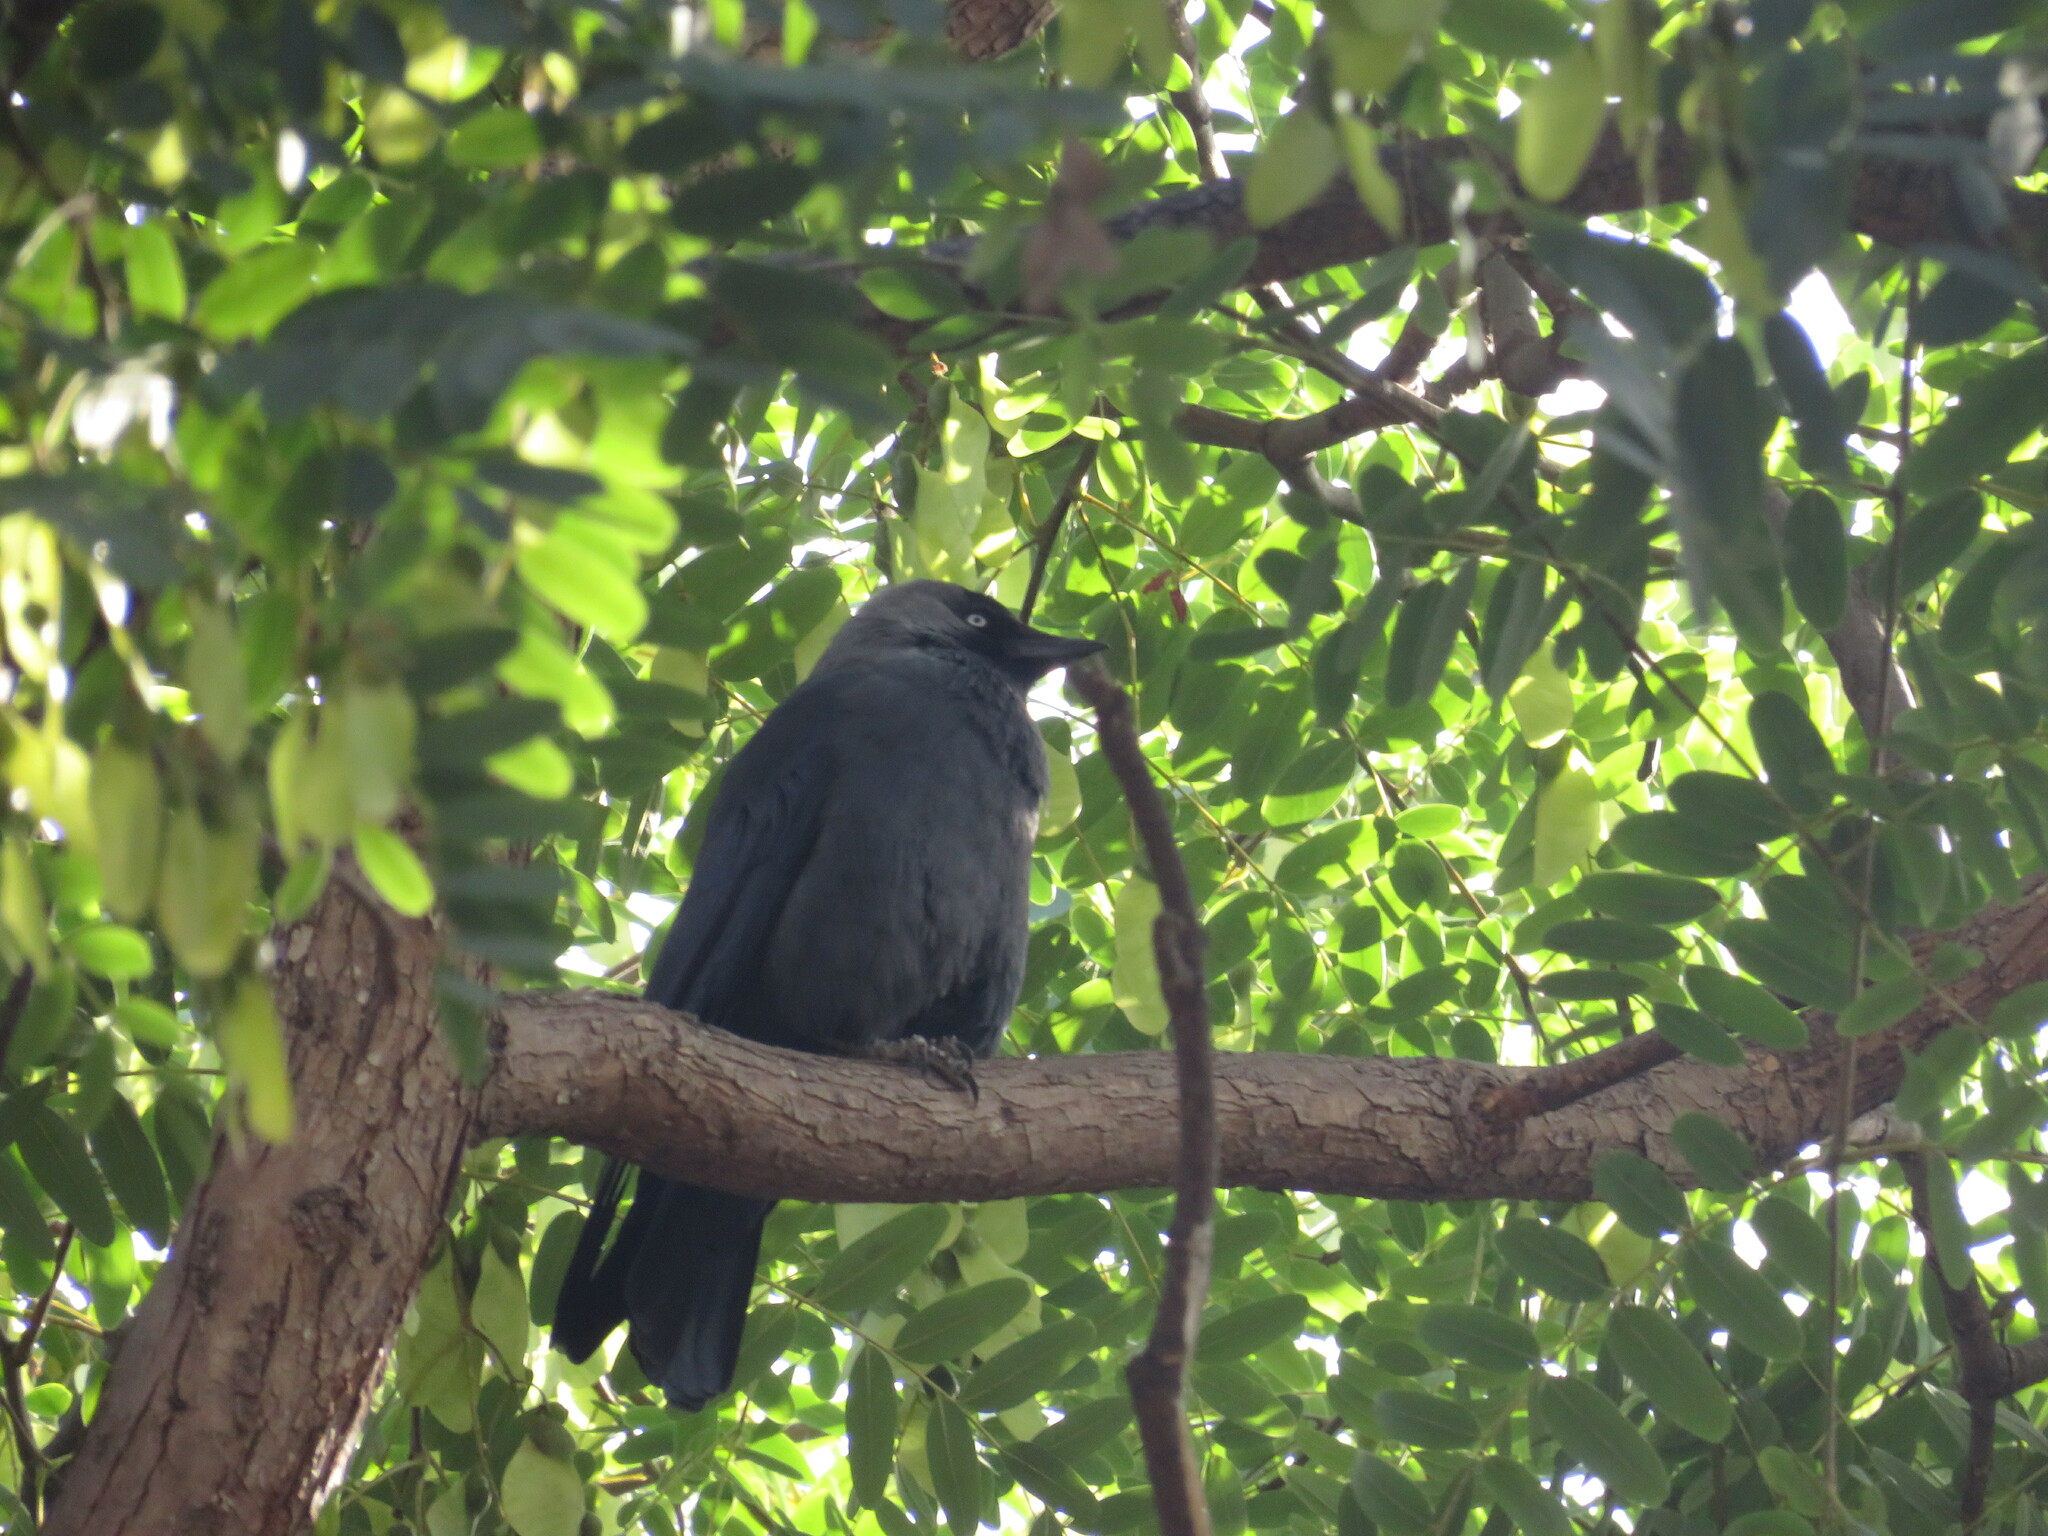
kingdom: Animalia
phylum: Chordata
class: Aves
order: Passeriformes
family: Corvidae
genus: Coloeus
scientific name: Coloeus monedula
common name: Western jackdaw
